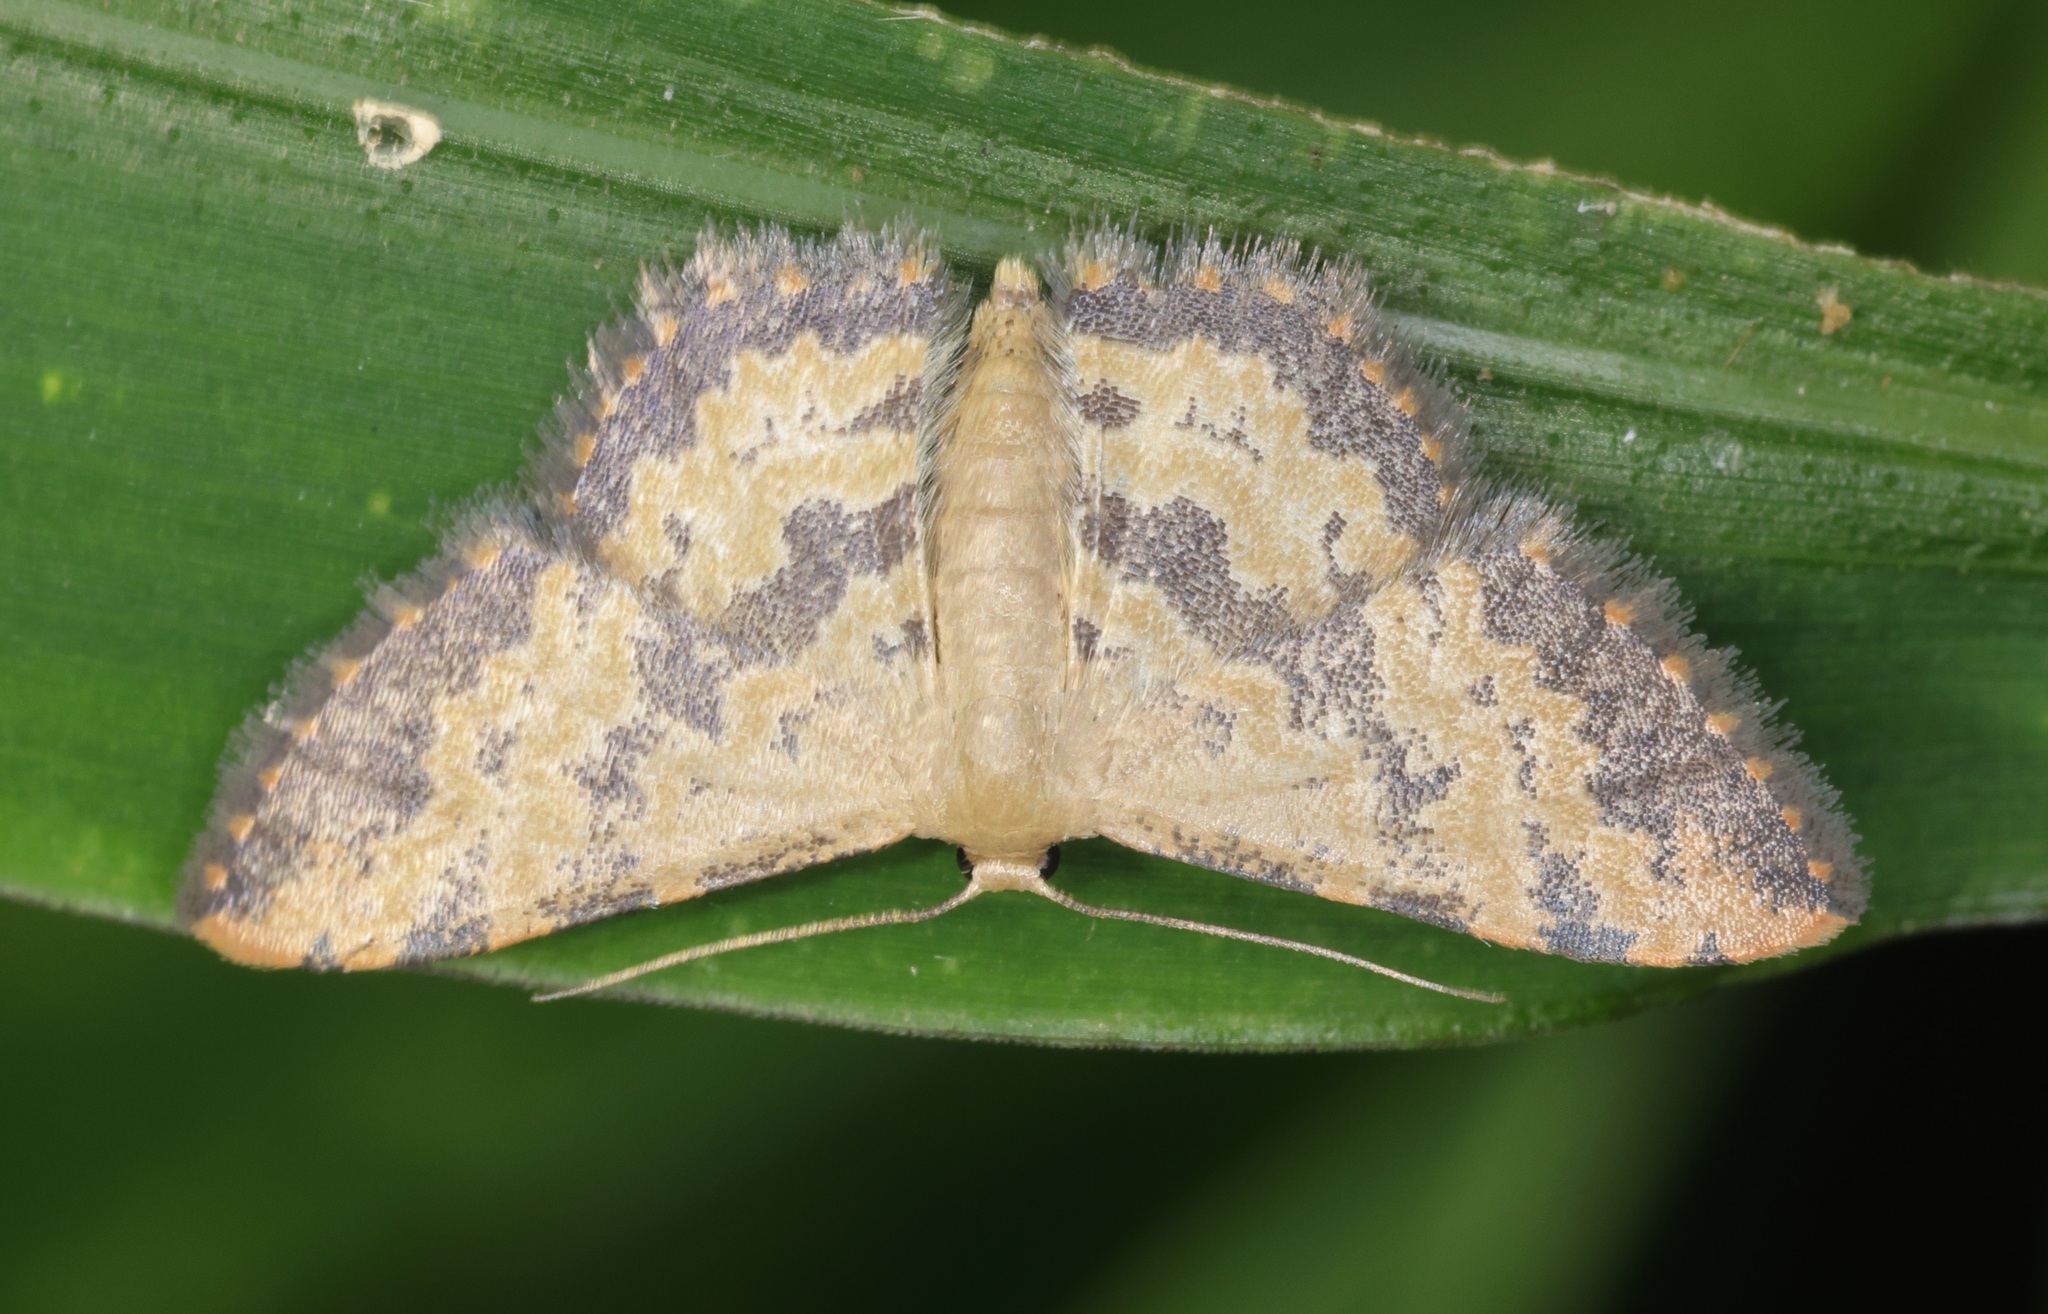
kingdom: Animalia
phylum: Arthropoda
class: Insecta
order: Lepidoptera
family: Geometridae
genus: Idaea
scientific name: Idaea phaeocrossa
